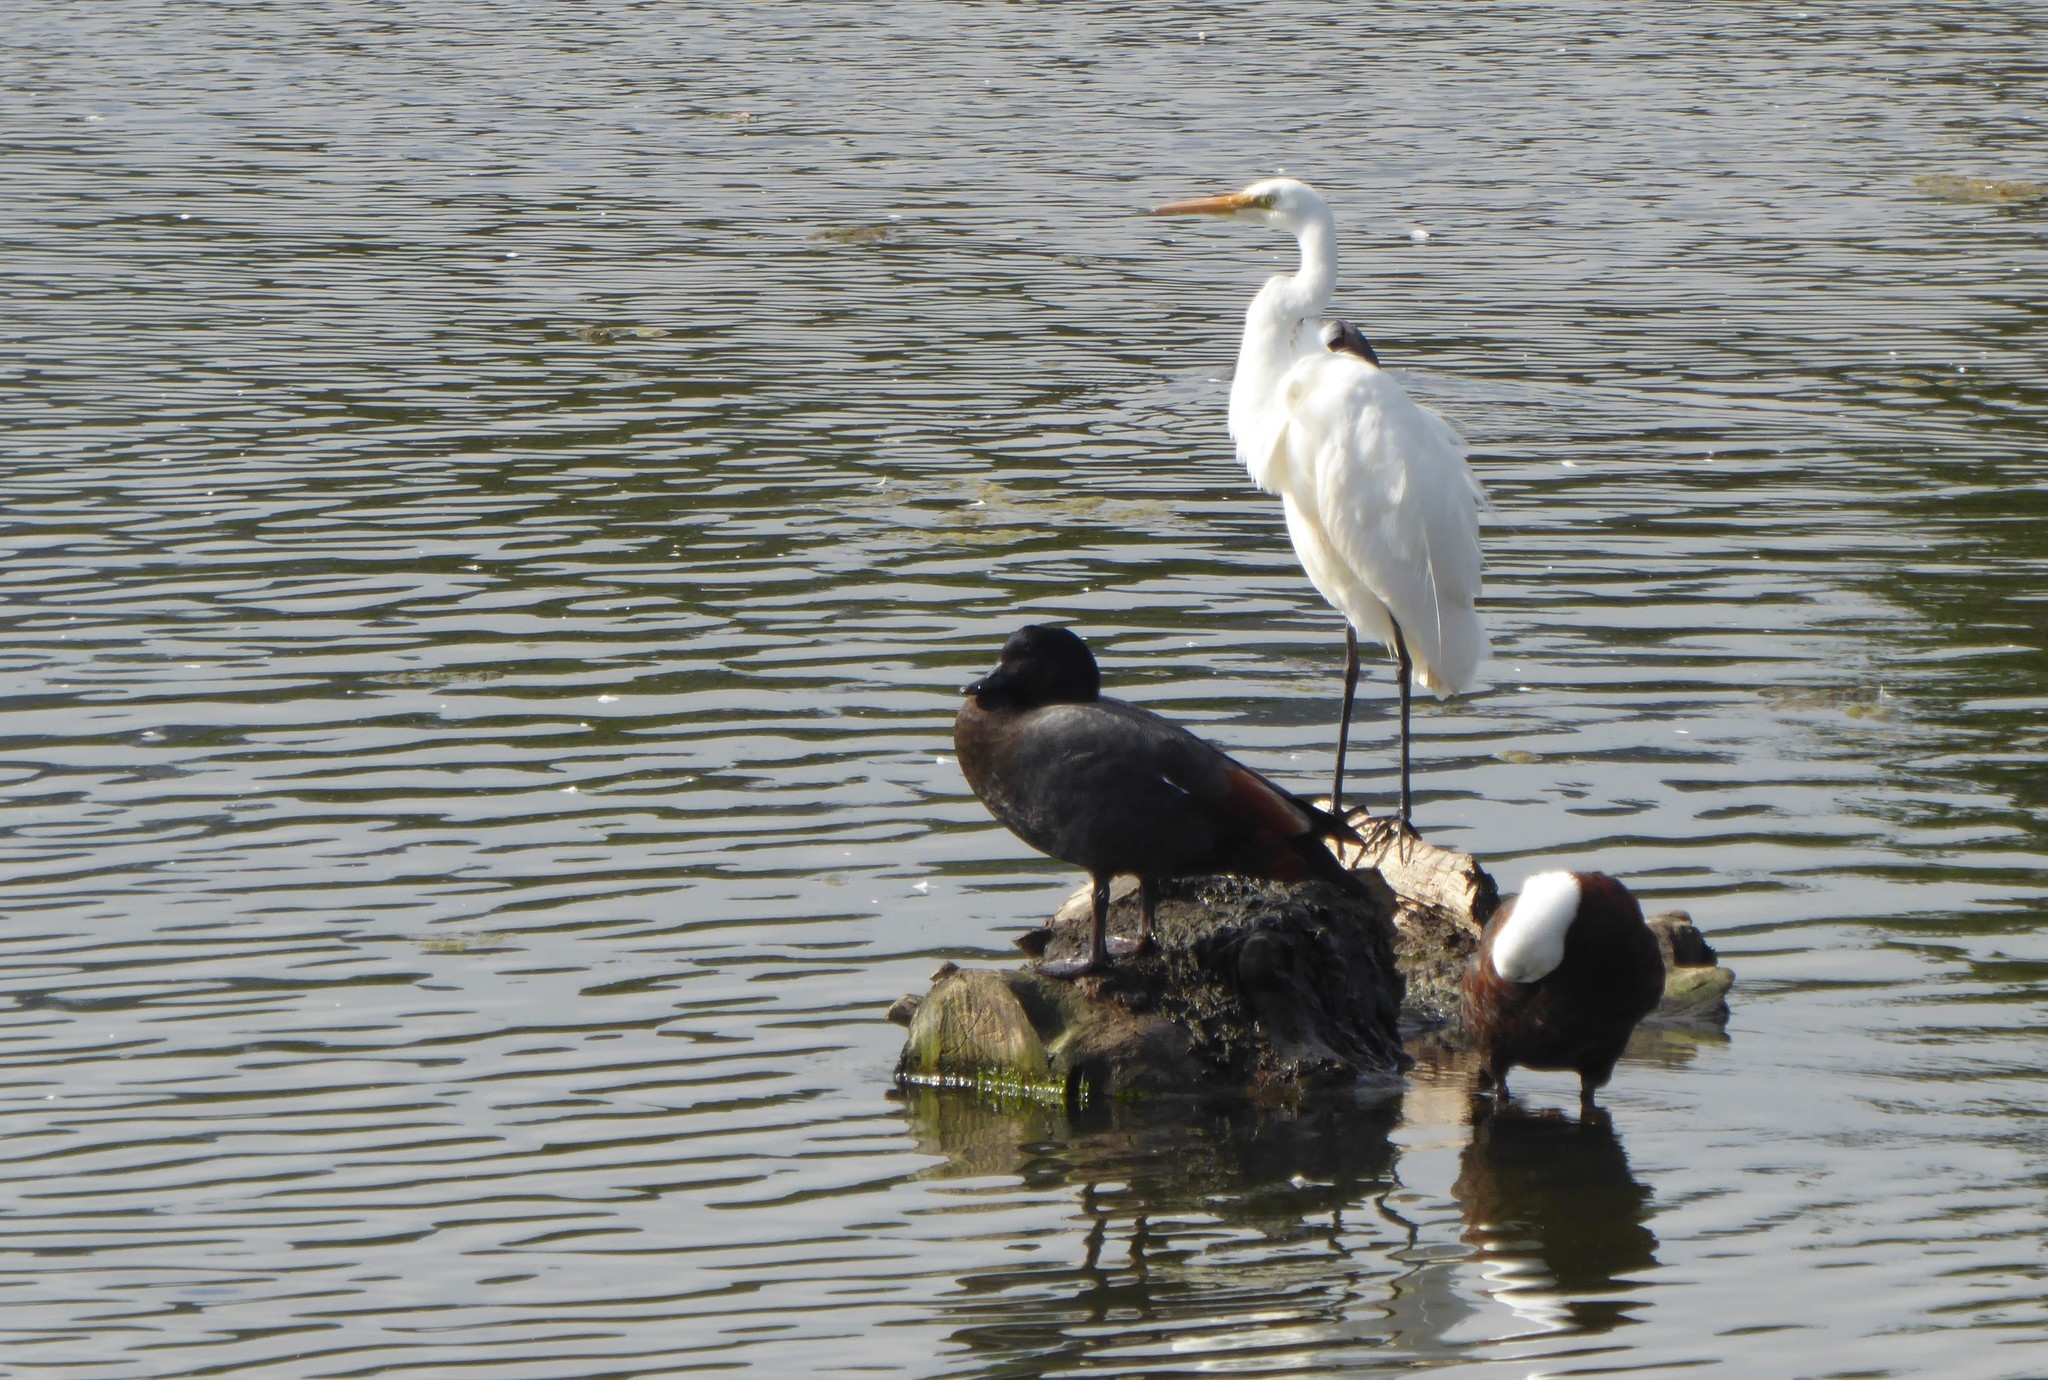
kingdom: Animalia
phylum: Chordata
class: Aves
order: Pelecaniformes
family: Ardeidae
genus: Ardea
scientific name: Ardea modesta
